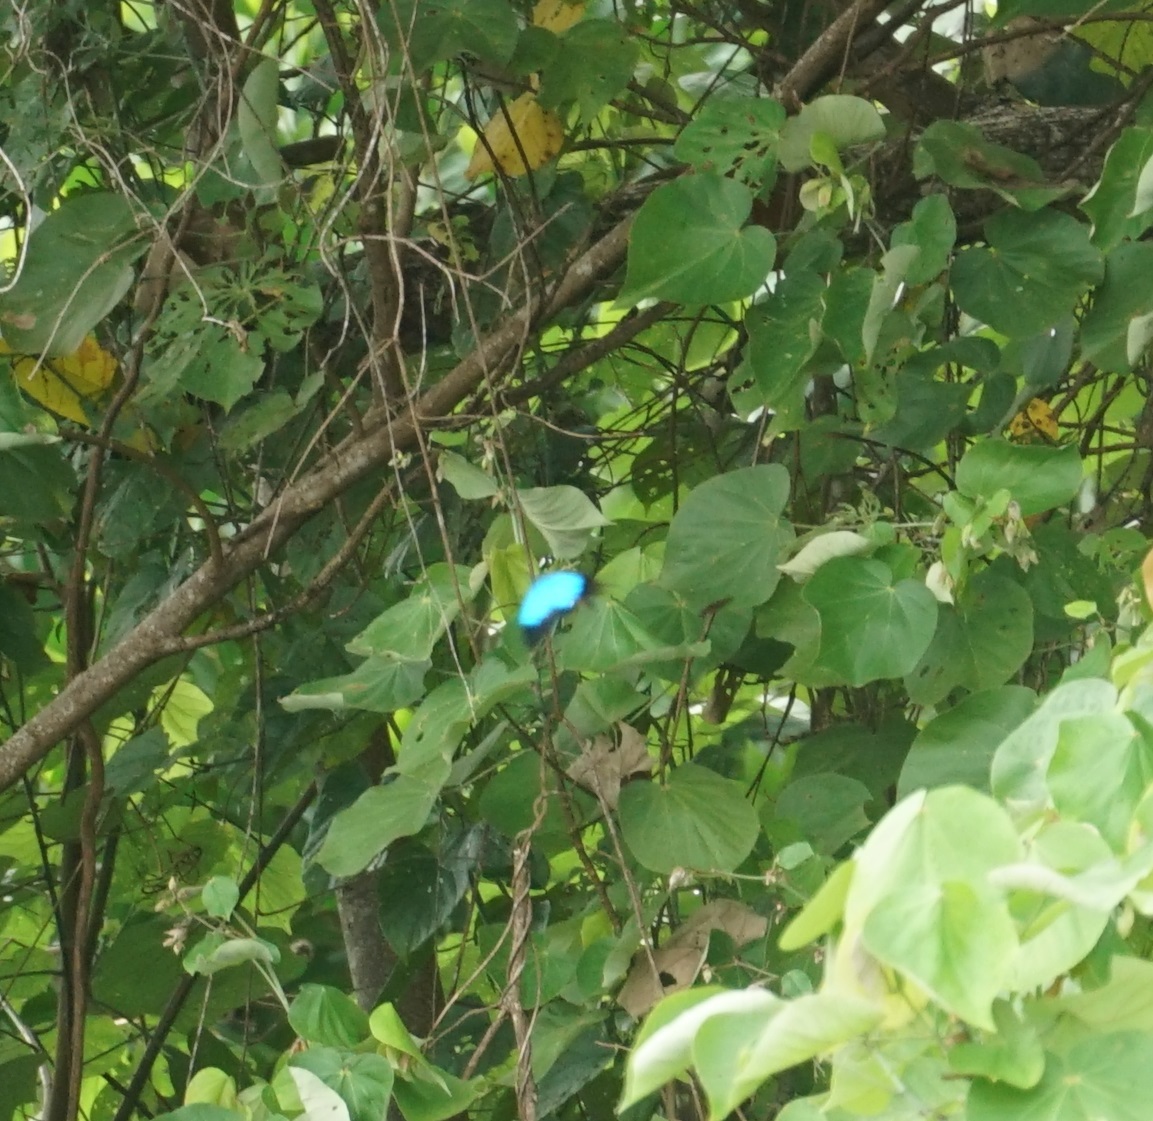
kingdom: Animalia
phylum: Arthropoda
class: Insecta
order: Lepidoptera
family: Papilionidae
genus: Papilio
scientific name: Papilio ulysses
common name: Blue emperor
